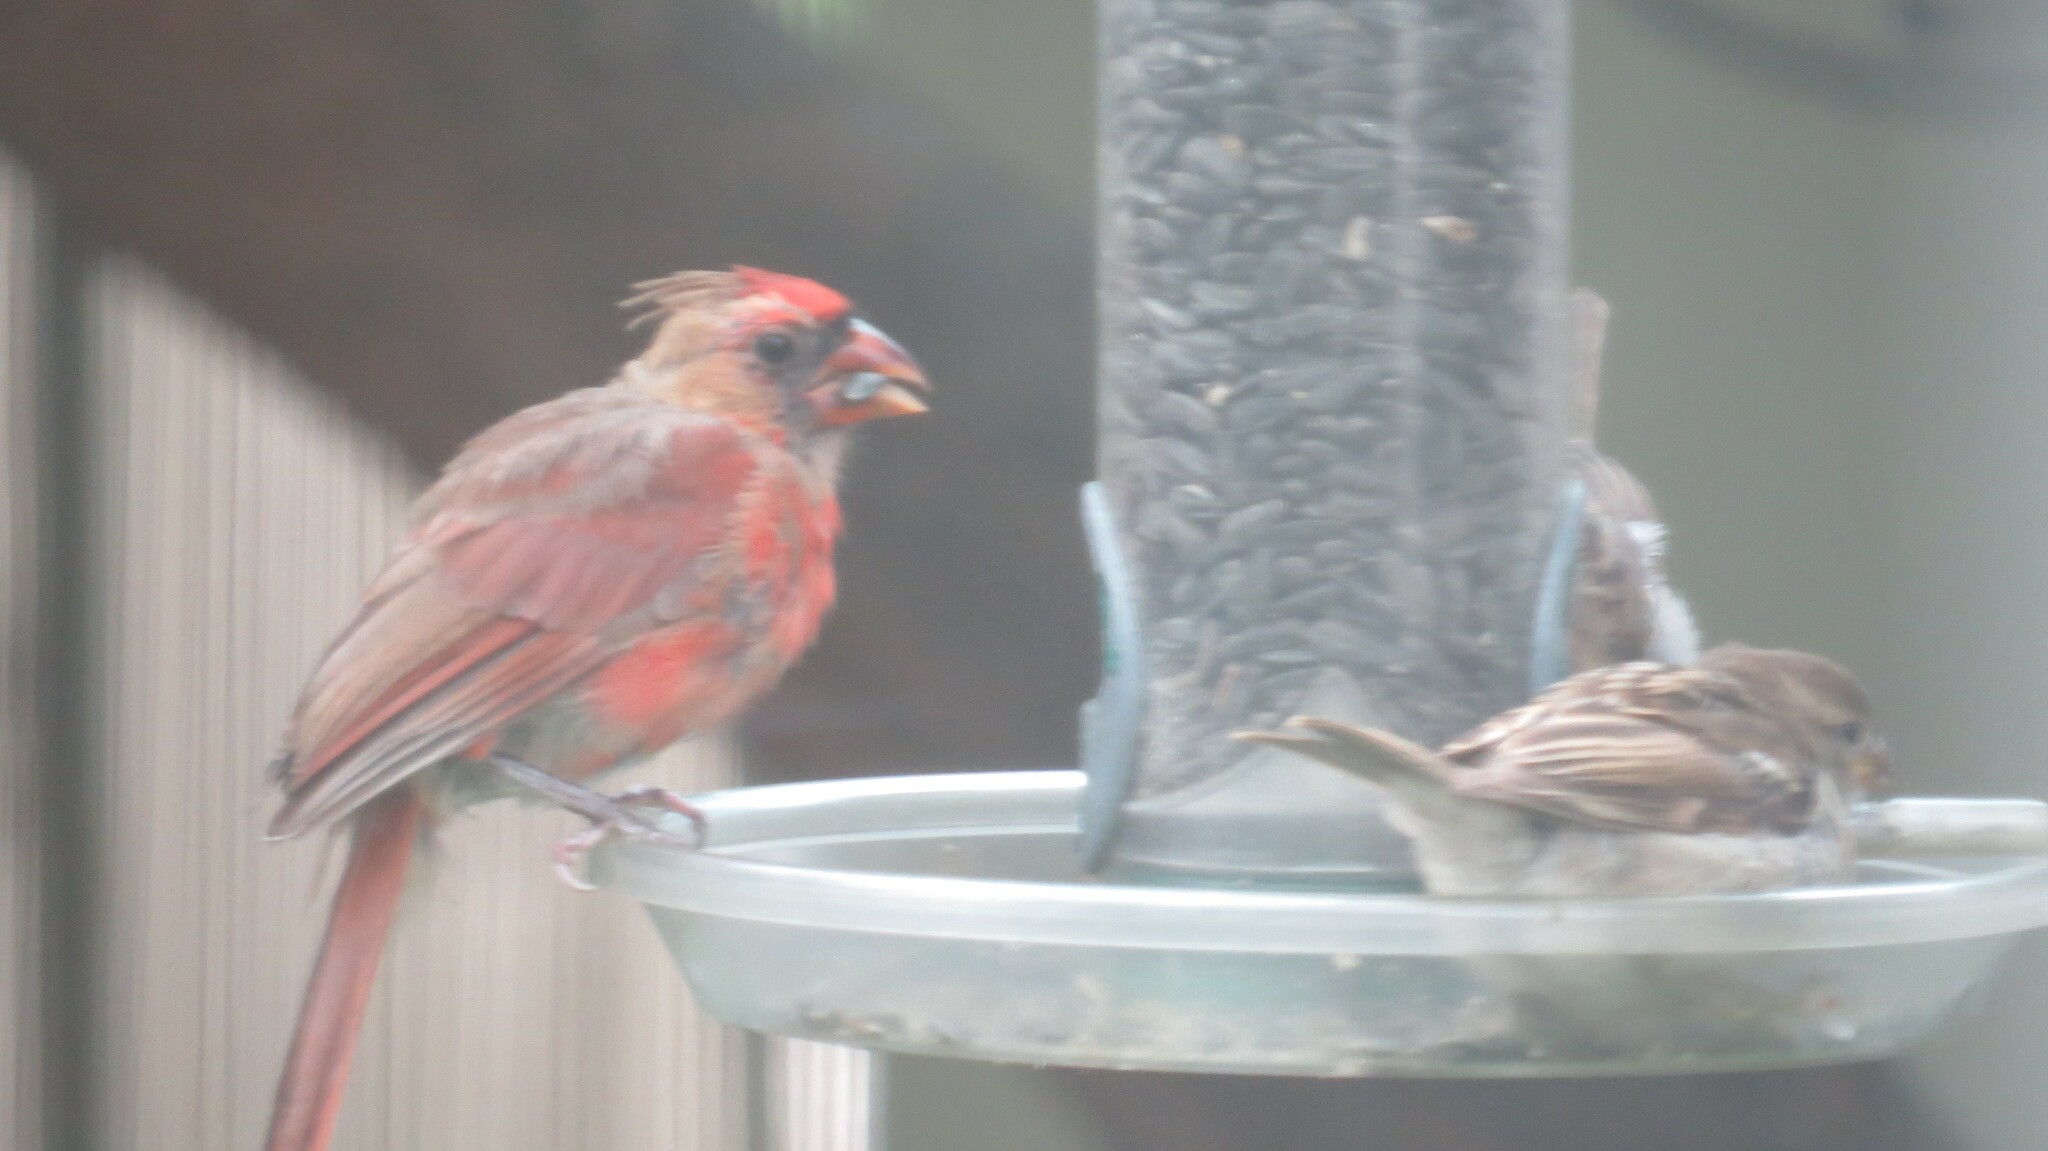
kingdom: Animalia
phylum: Chordata
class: Aves
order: Passeriformes
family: Cardinalidae
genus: Cardinalis
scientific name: Cardinalis cardinalis
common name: Northern cardinal
